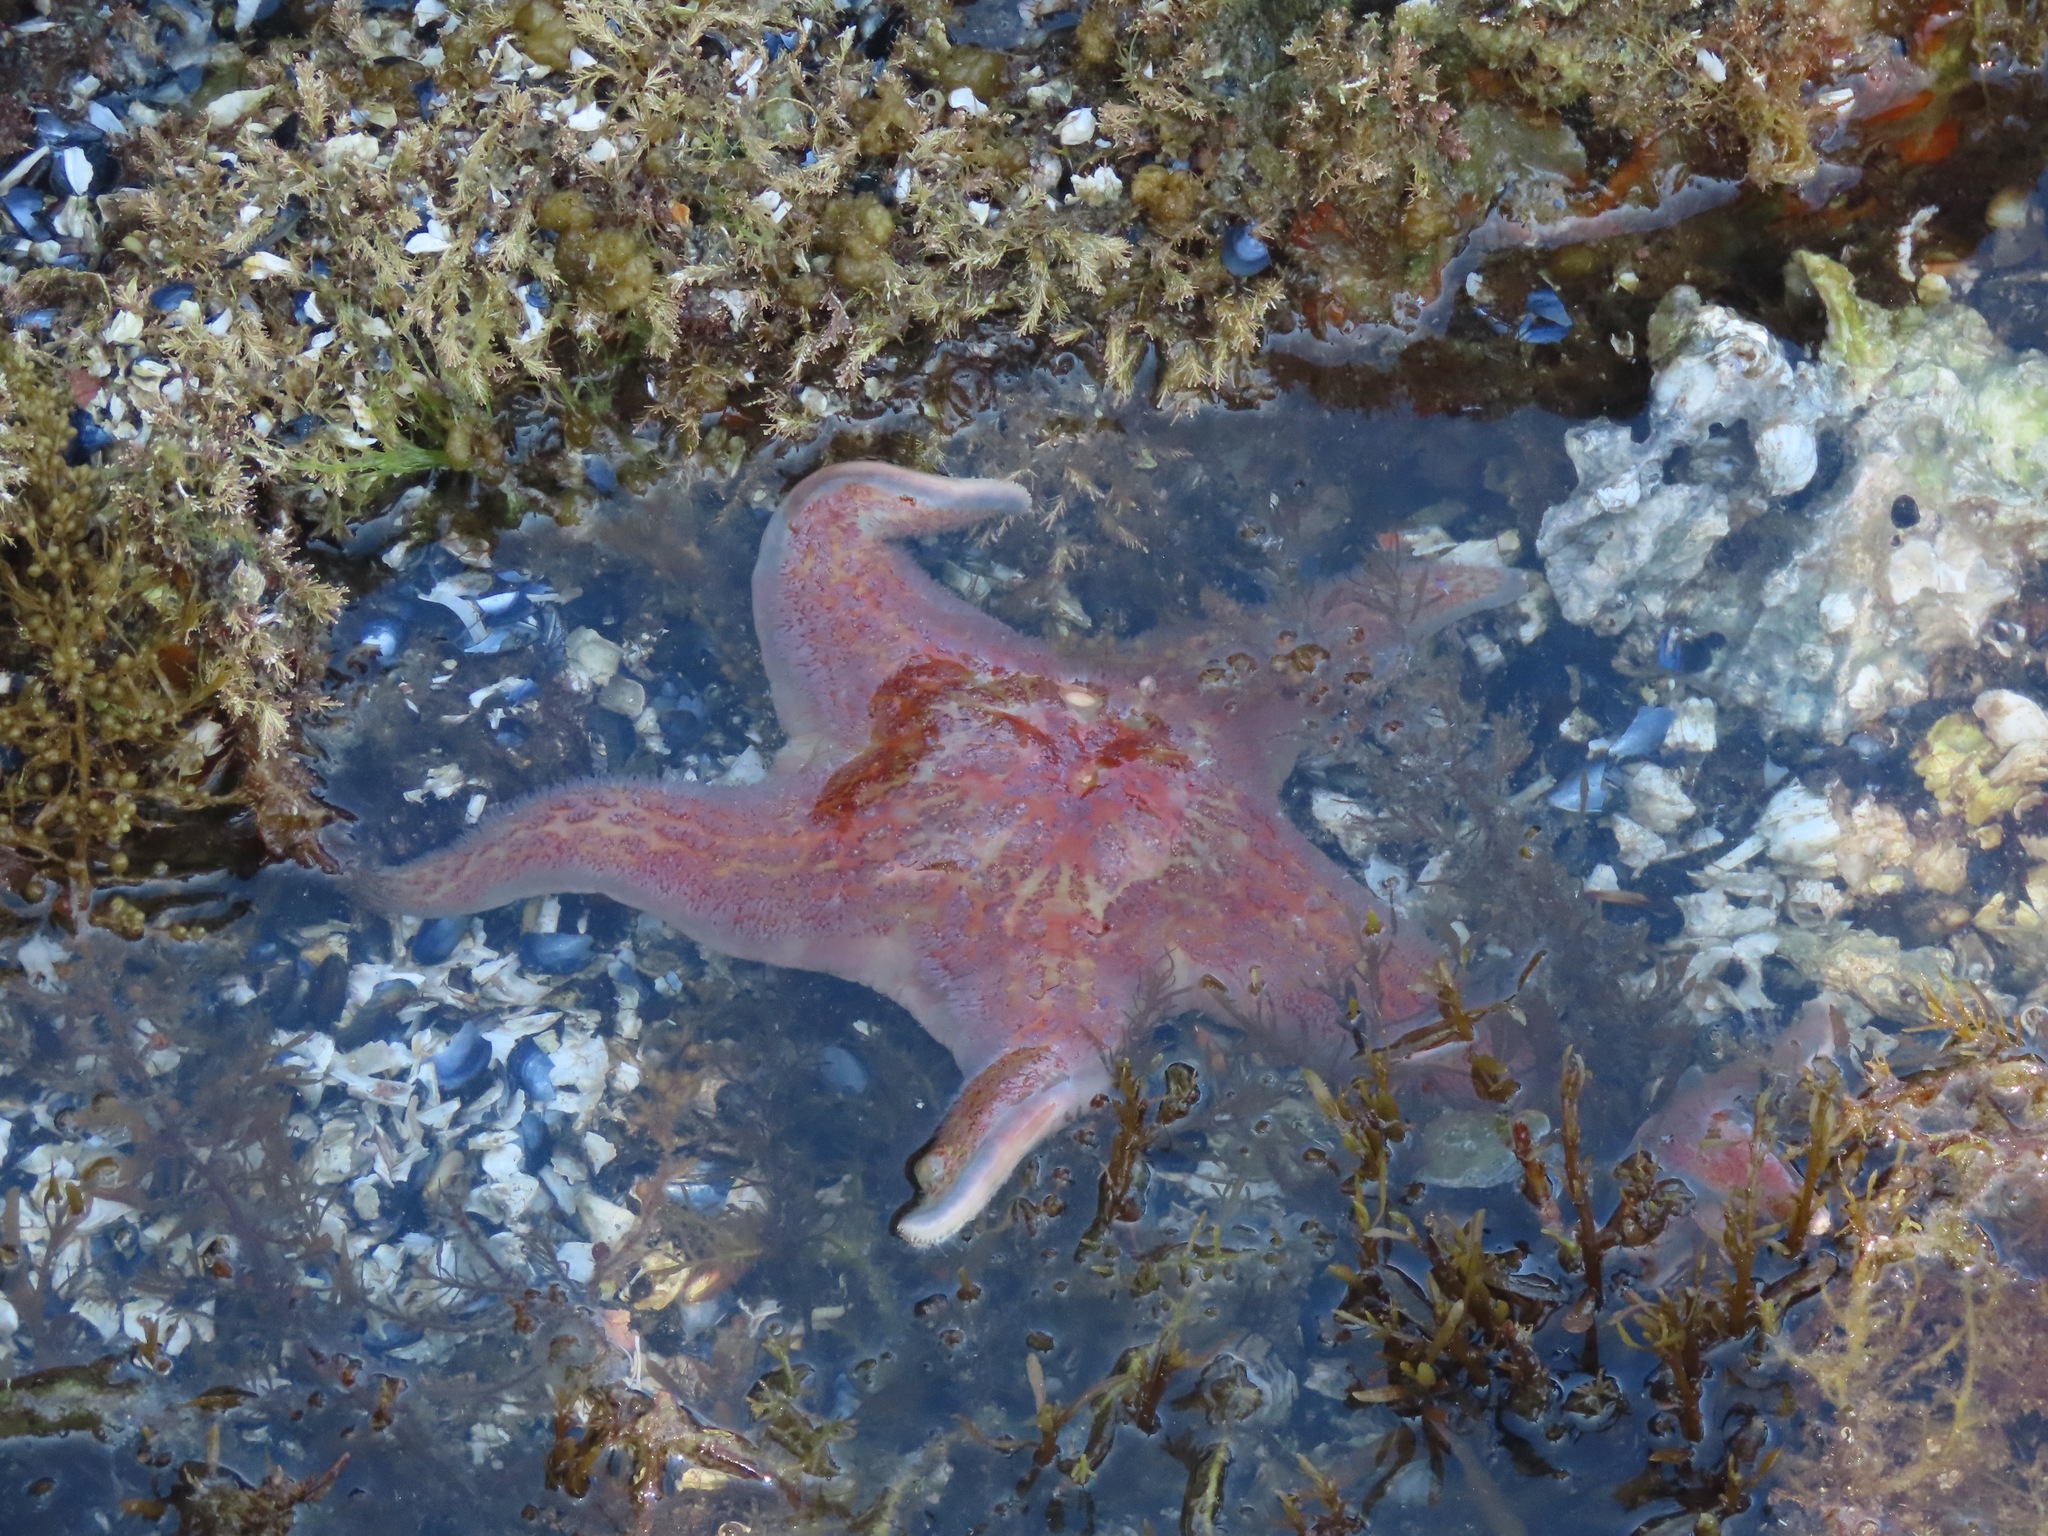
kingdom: Animalia
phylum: Echinodermata
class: Asteroidea
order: Valvatida
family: Asteropseidae
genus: Dermasterias
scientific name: Dermasterias imbricata
